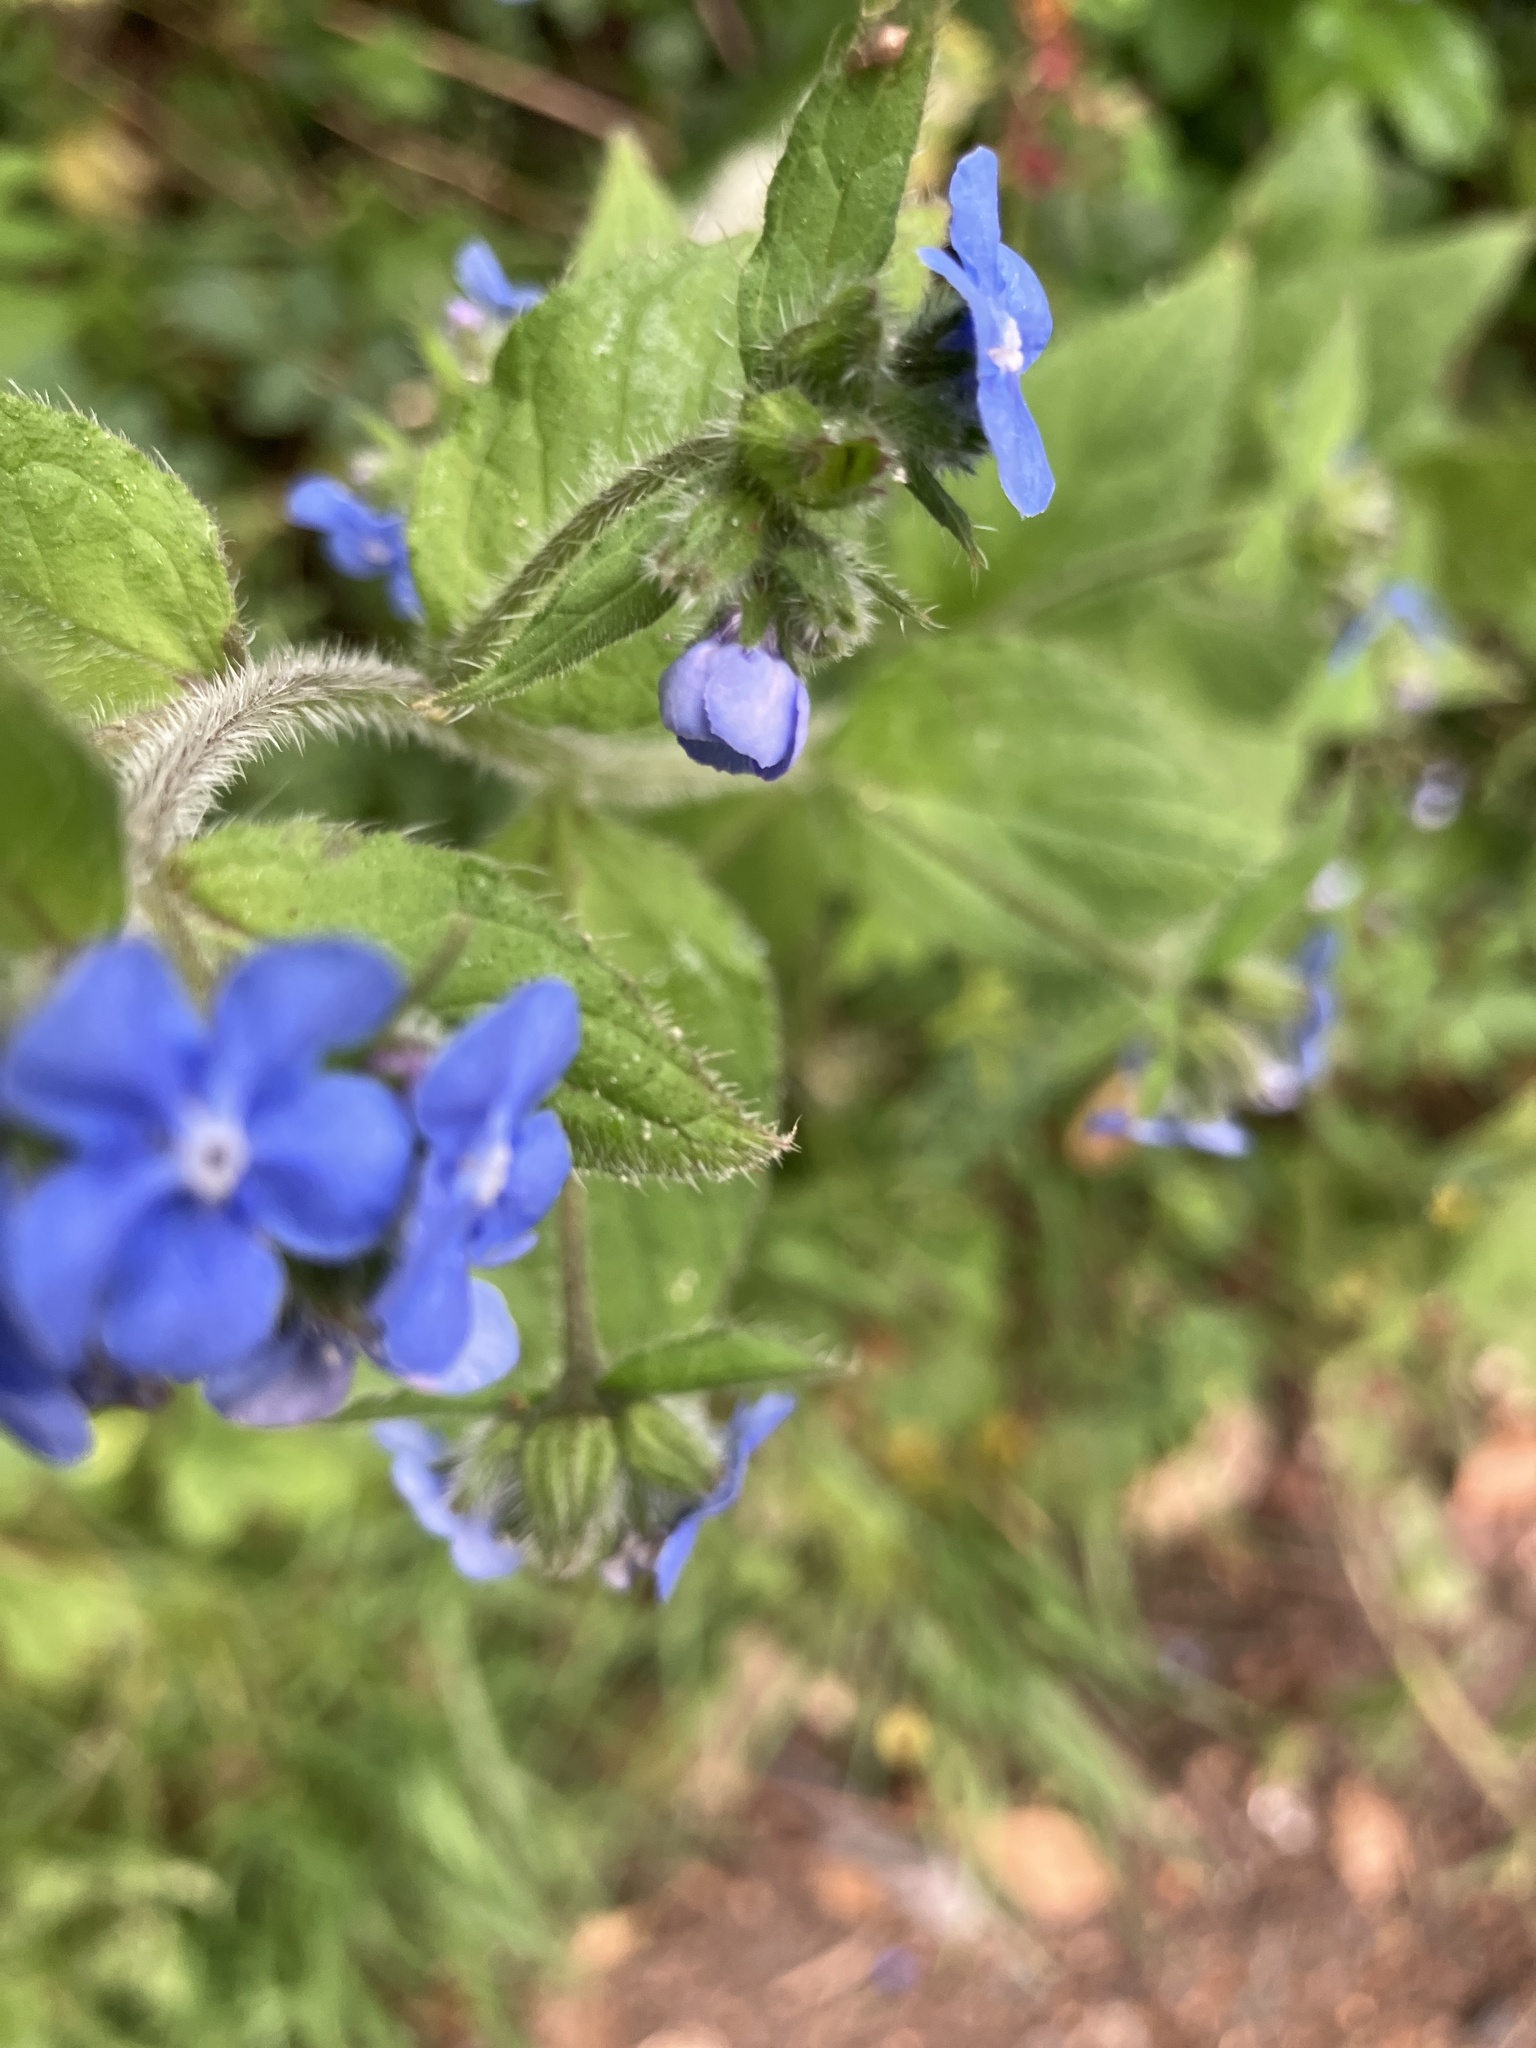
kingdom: Plantae
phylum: Tracheophyta
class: Magnoliopsida
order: Boraginales
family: Boraginaceae
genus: Pentaglottis
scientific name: Pentaglottis sempervirens
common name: Green alkanet
